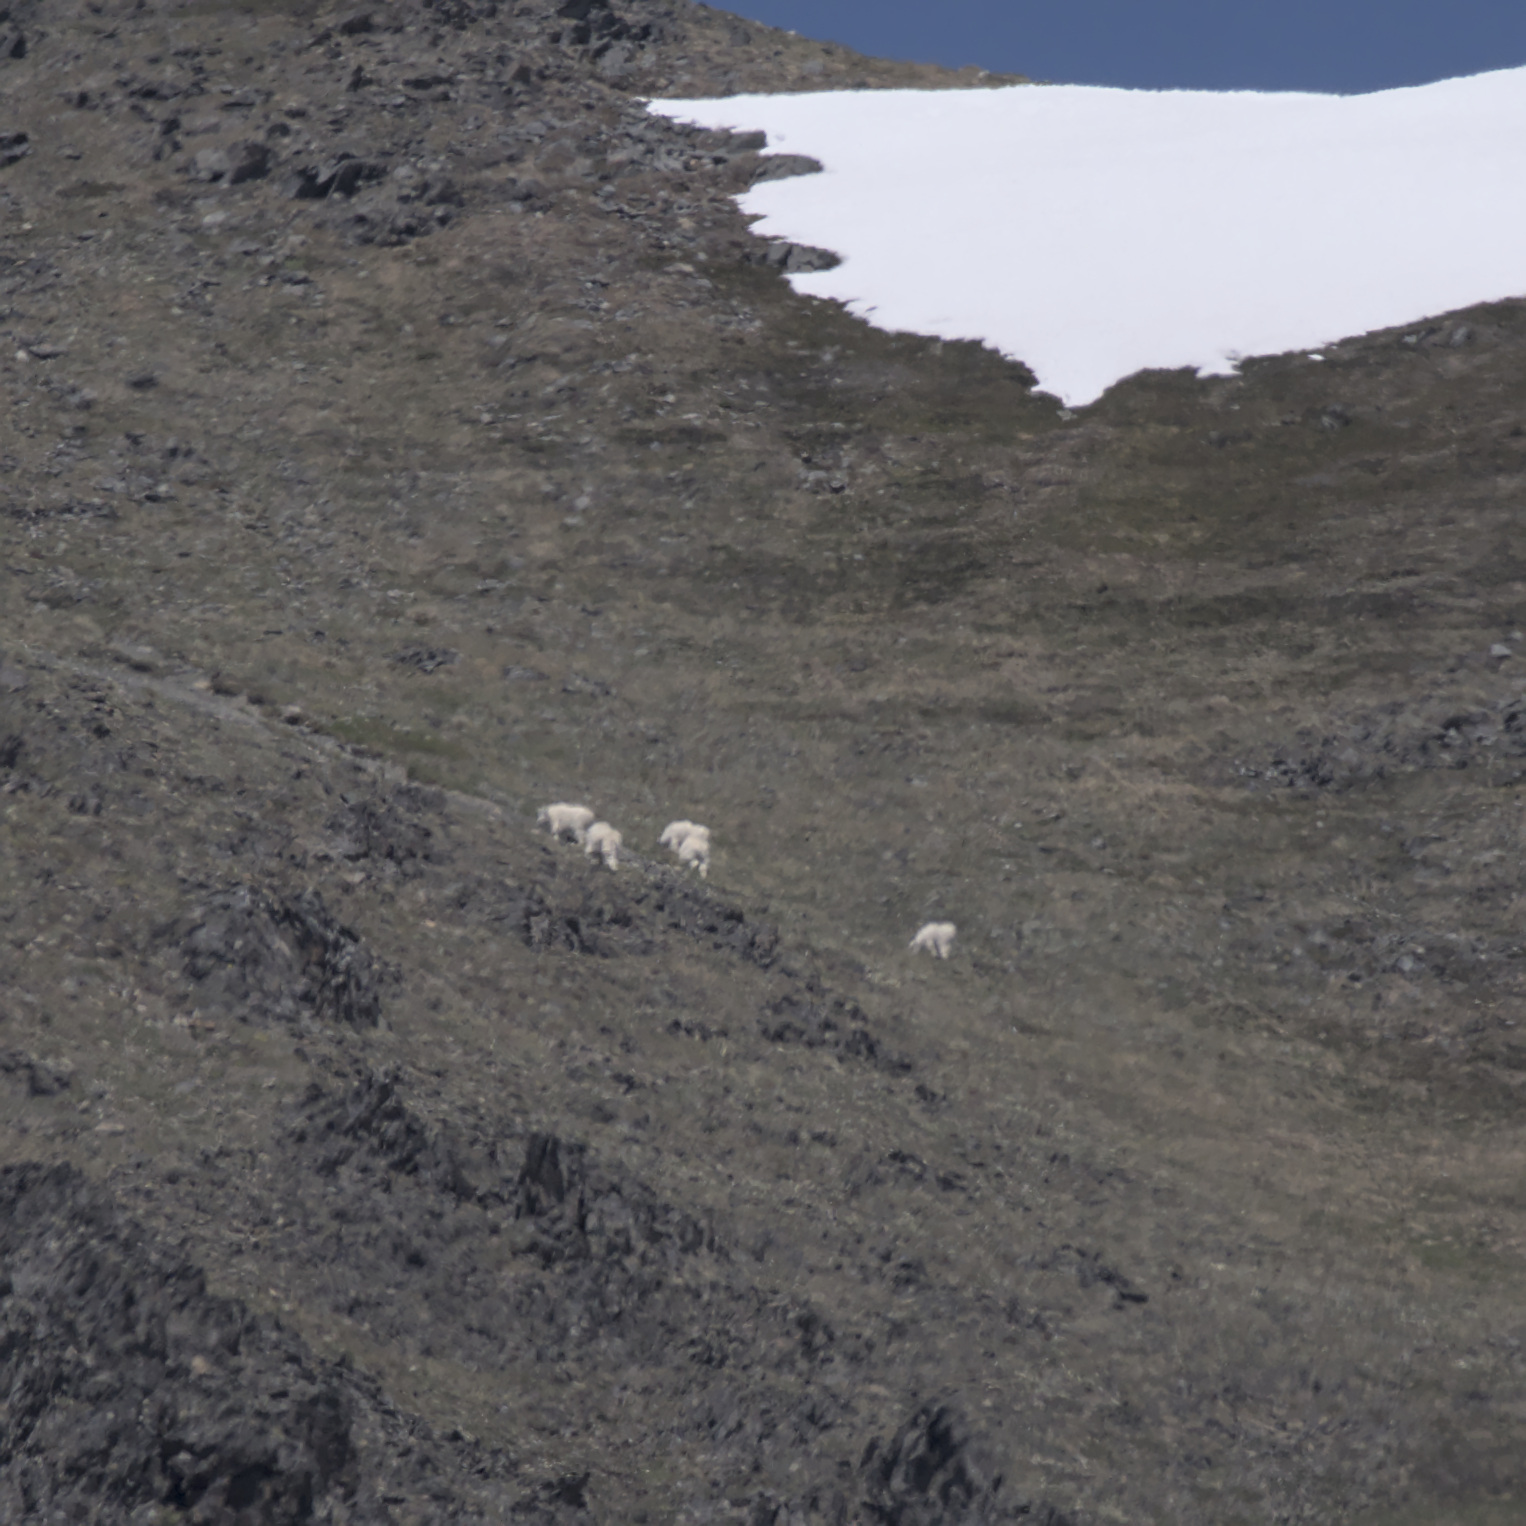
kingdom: Animalia
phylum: Chordata
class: Mammalia
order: Artiodactyla
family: Bovidae
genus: Oreamnos
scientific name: Oreamnos americanus
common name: Mountain goat
